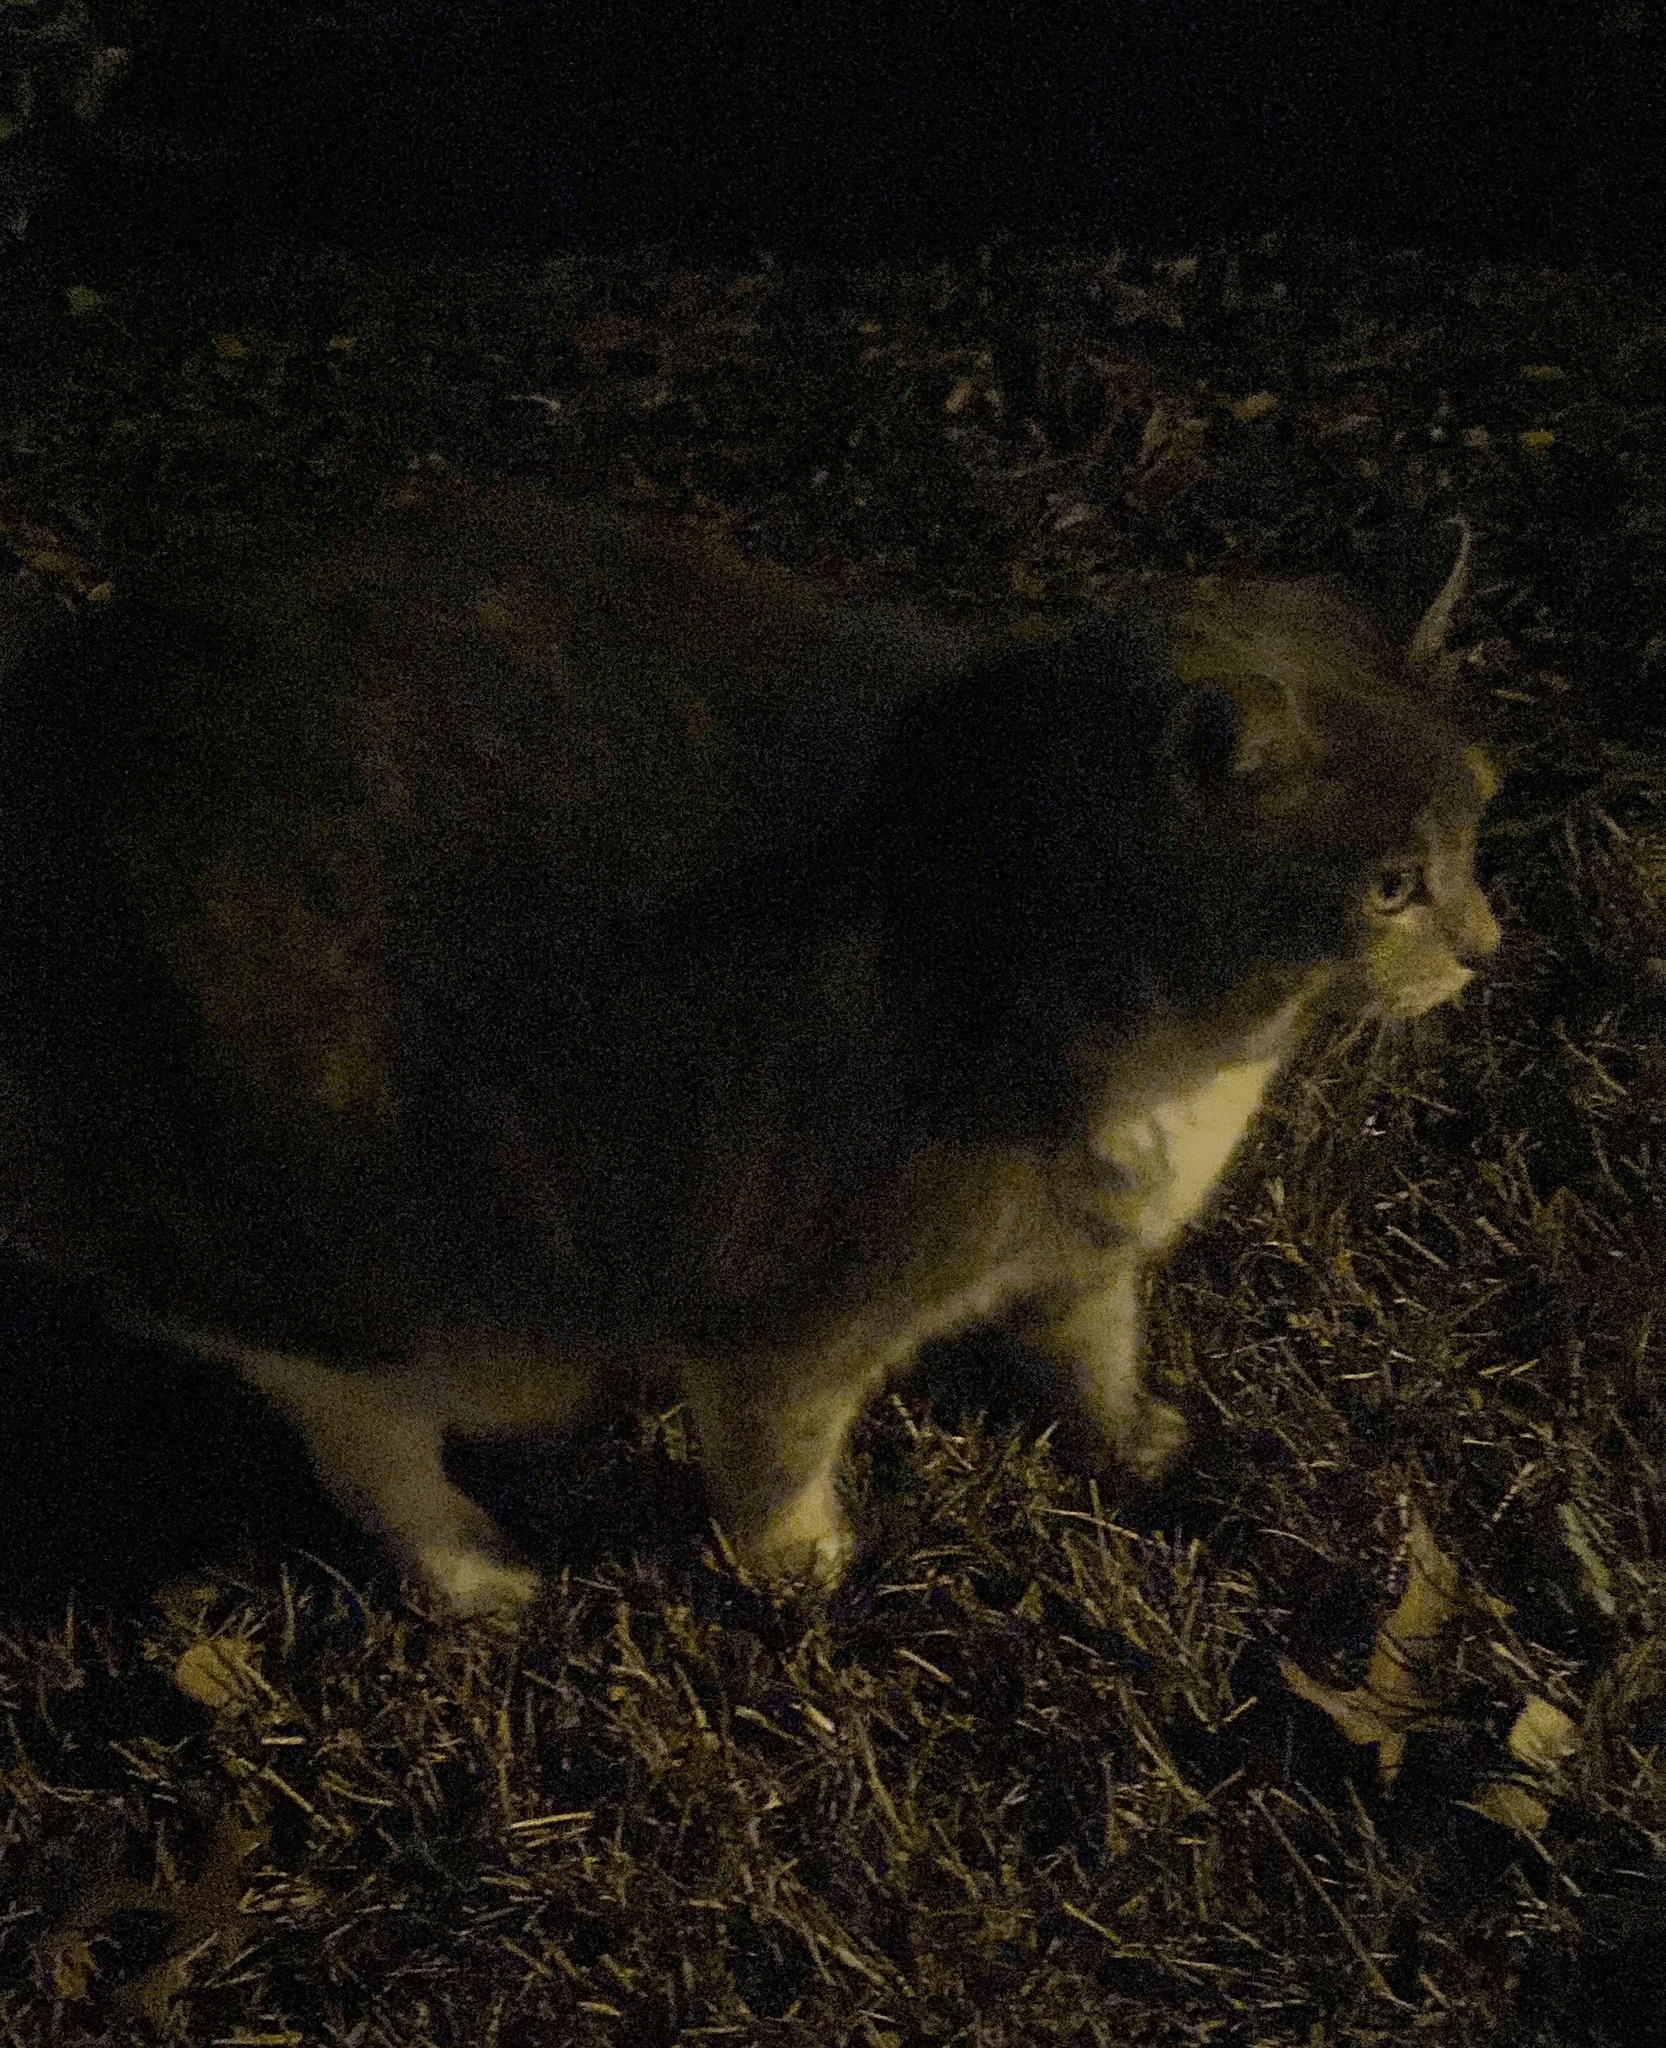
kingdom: Animalia
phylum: Chordata
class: Mammalia
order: Carnivora
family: Felidae
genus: Felis
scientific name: Felis catus
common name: Domestic cat
